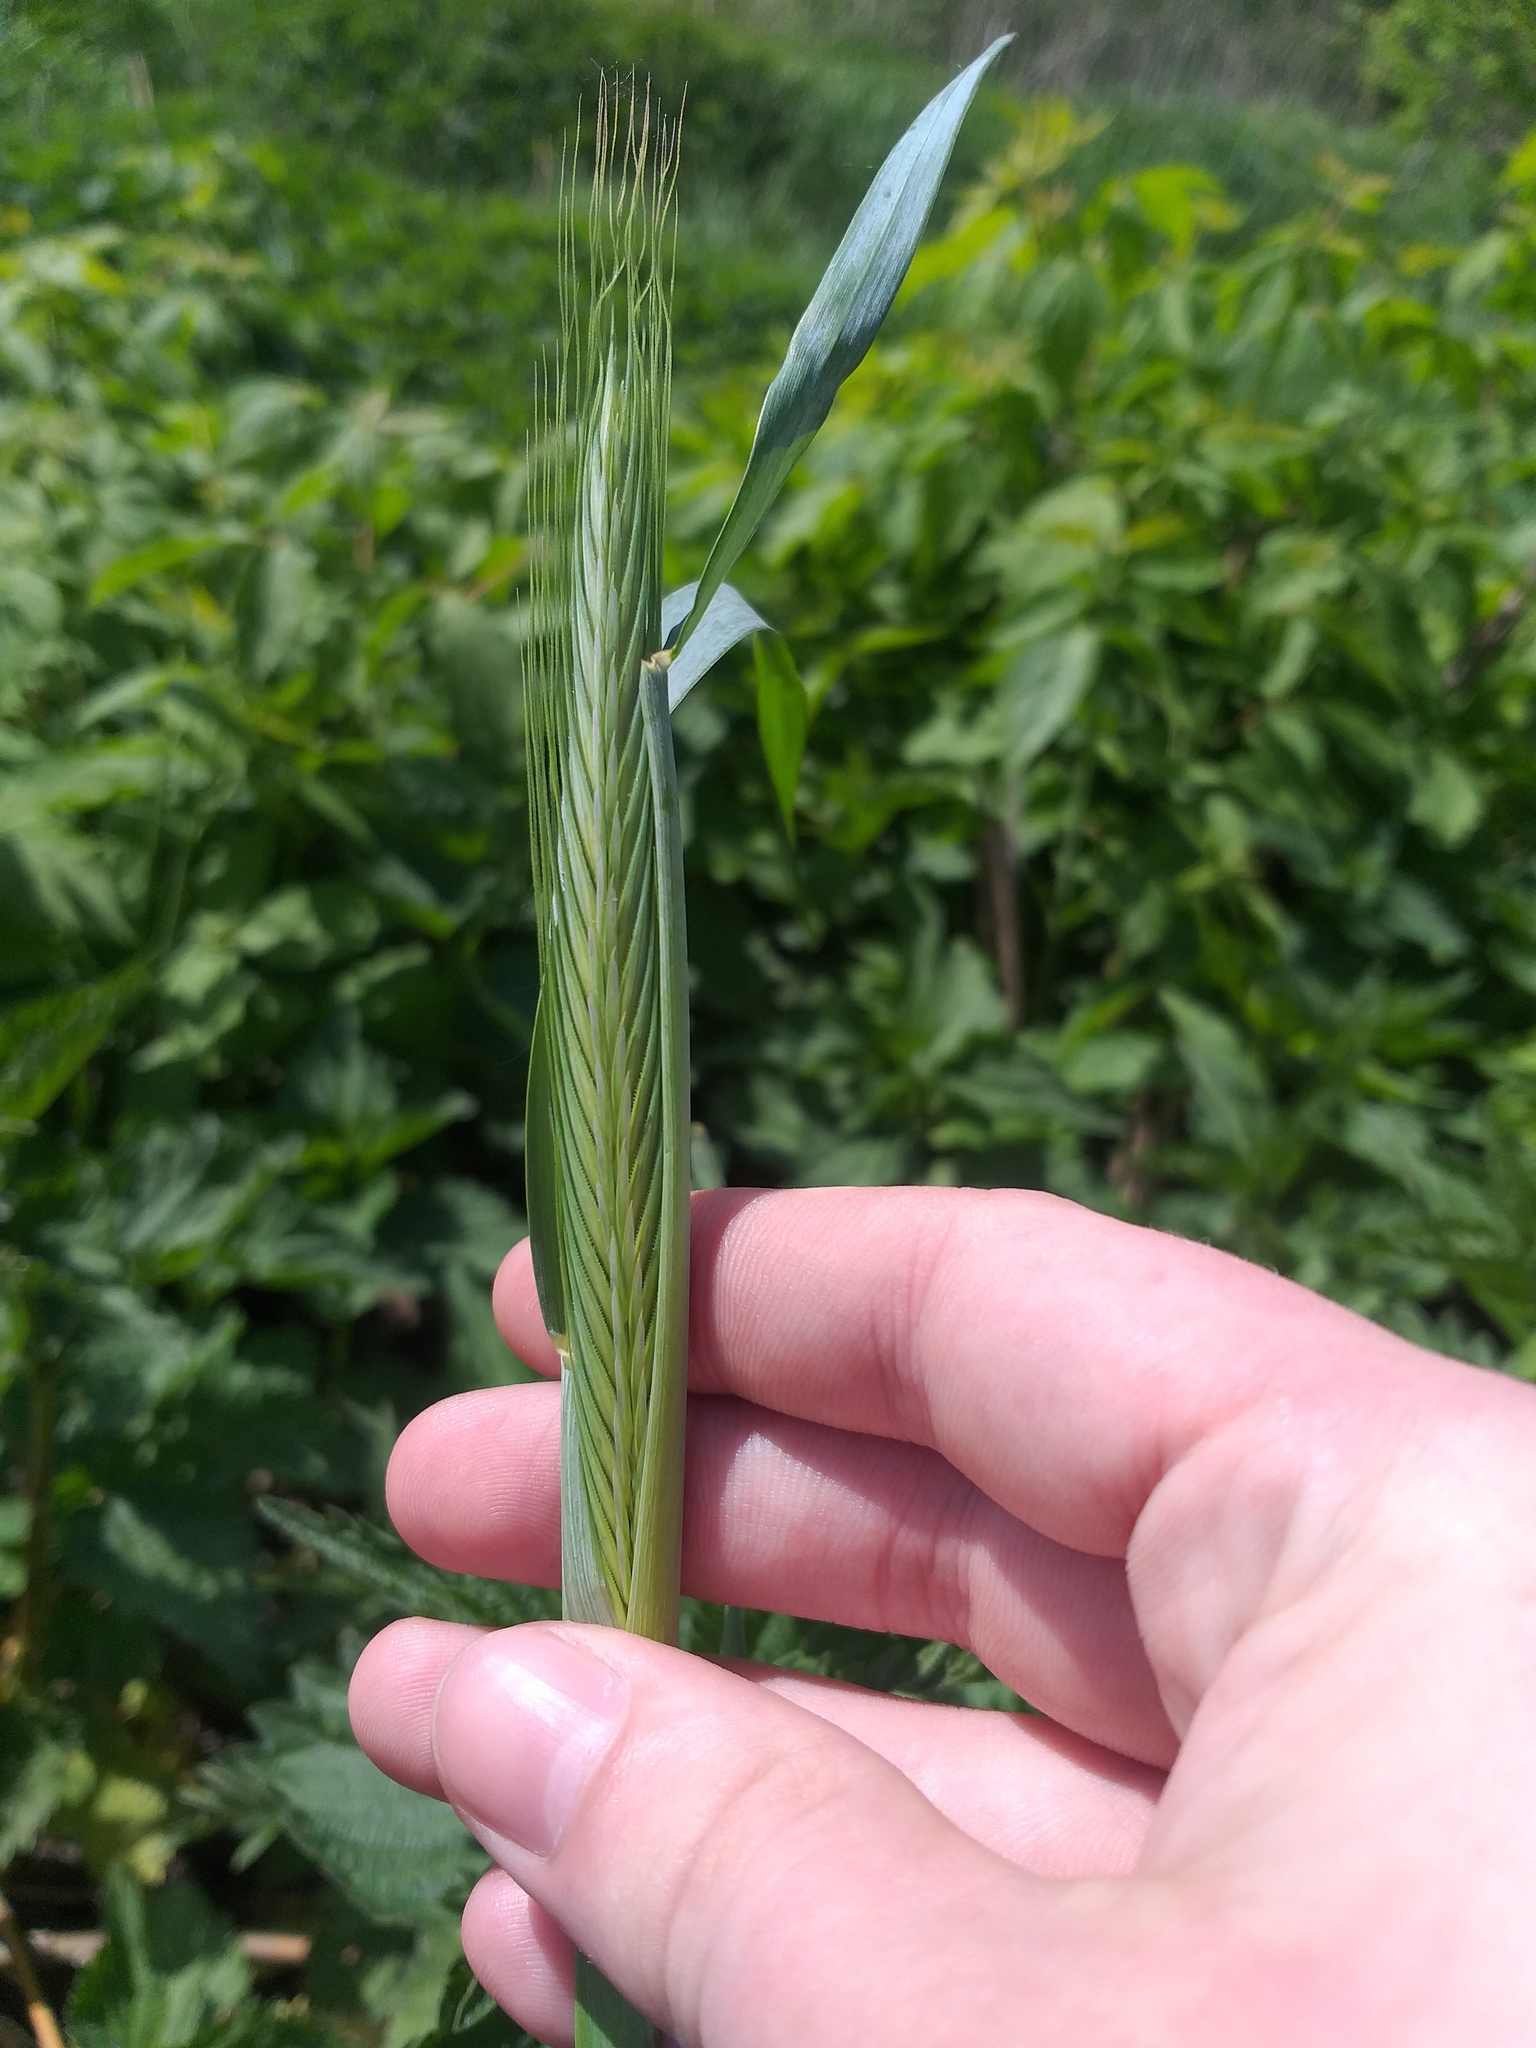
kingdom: Plantae
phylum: Tracheophyta
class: Liliopsida
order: Poales
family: Poaceae
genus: Secale
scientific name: Secale cereale
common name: Rye
